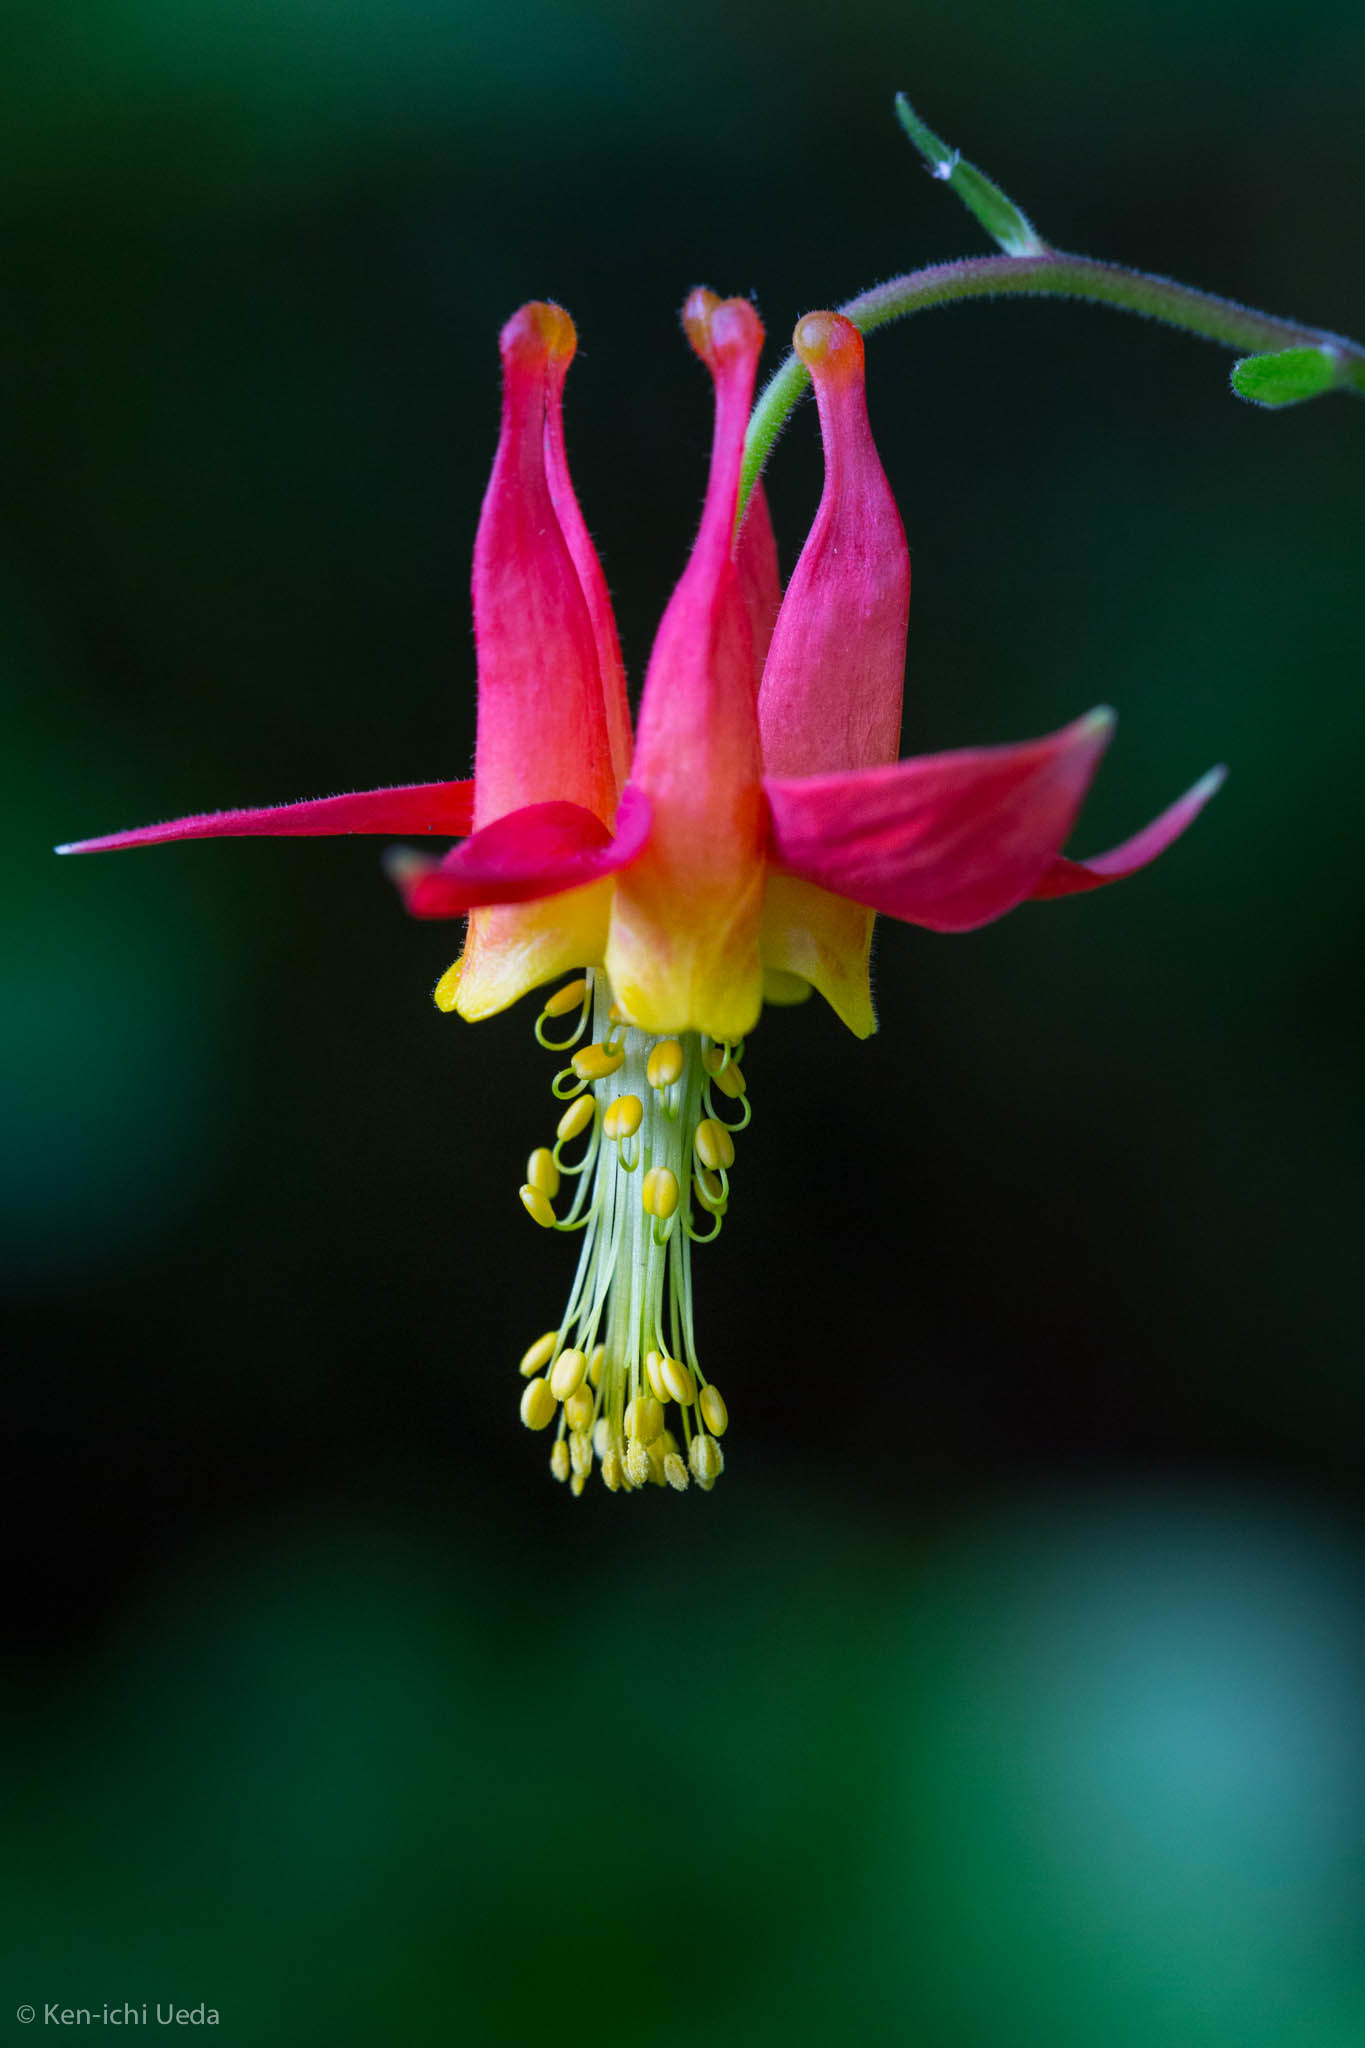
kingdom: Plantae
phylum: Tracheophyta
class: Magnoliopsida
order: Ranunculales
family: Ranunculaceae
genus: Aquilegia
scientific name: Aquilegia formosa
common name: Sitka columbine
